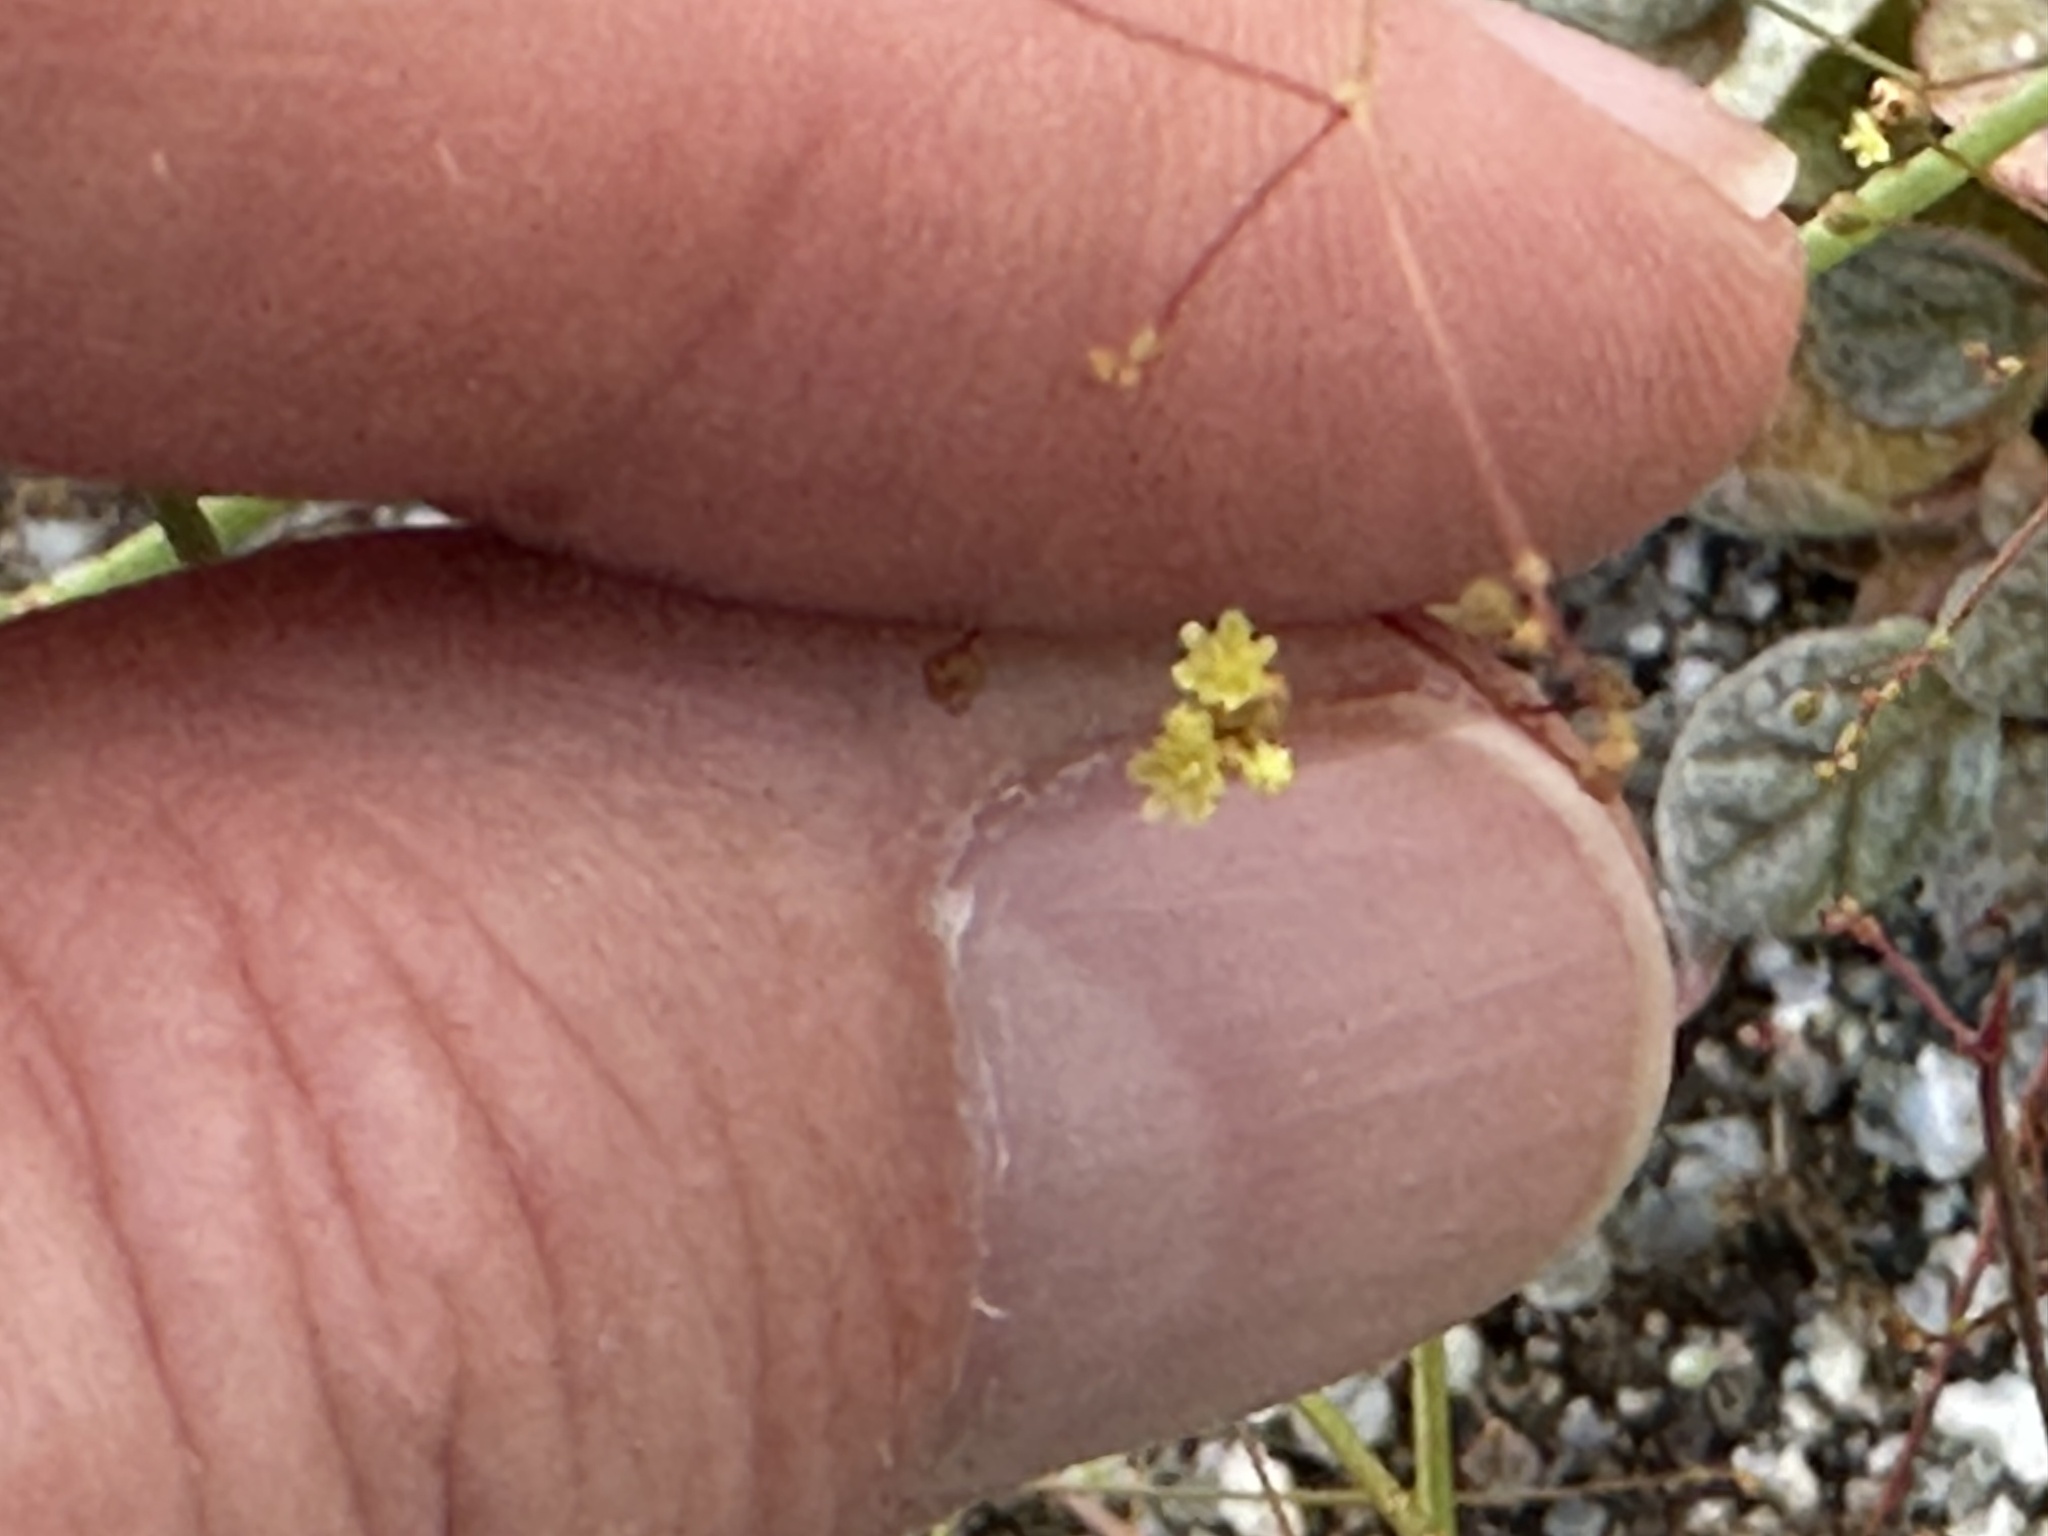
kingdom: Plantae
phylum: Tracheophyta
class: Magnoliopsida
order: Caryophyllales
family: Polygonaceae
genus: Eriogonum
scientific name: Eriogonum thomasii
